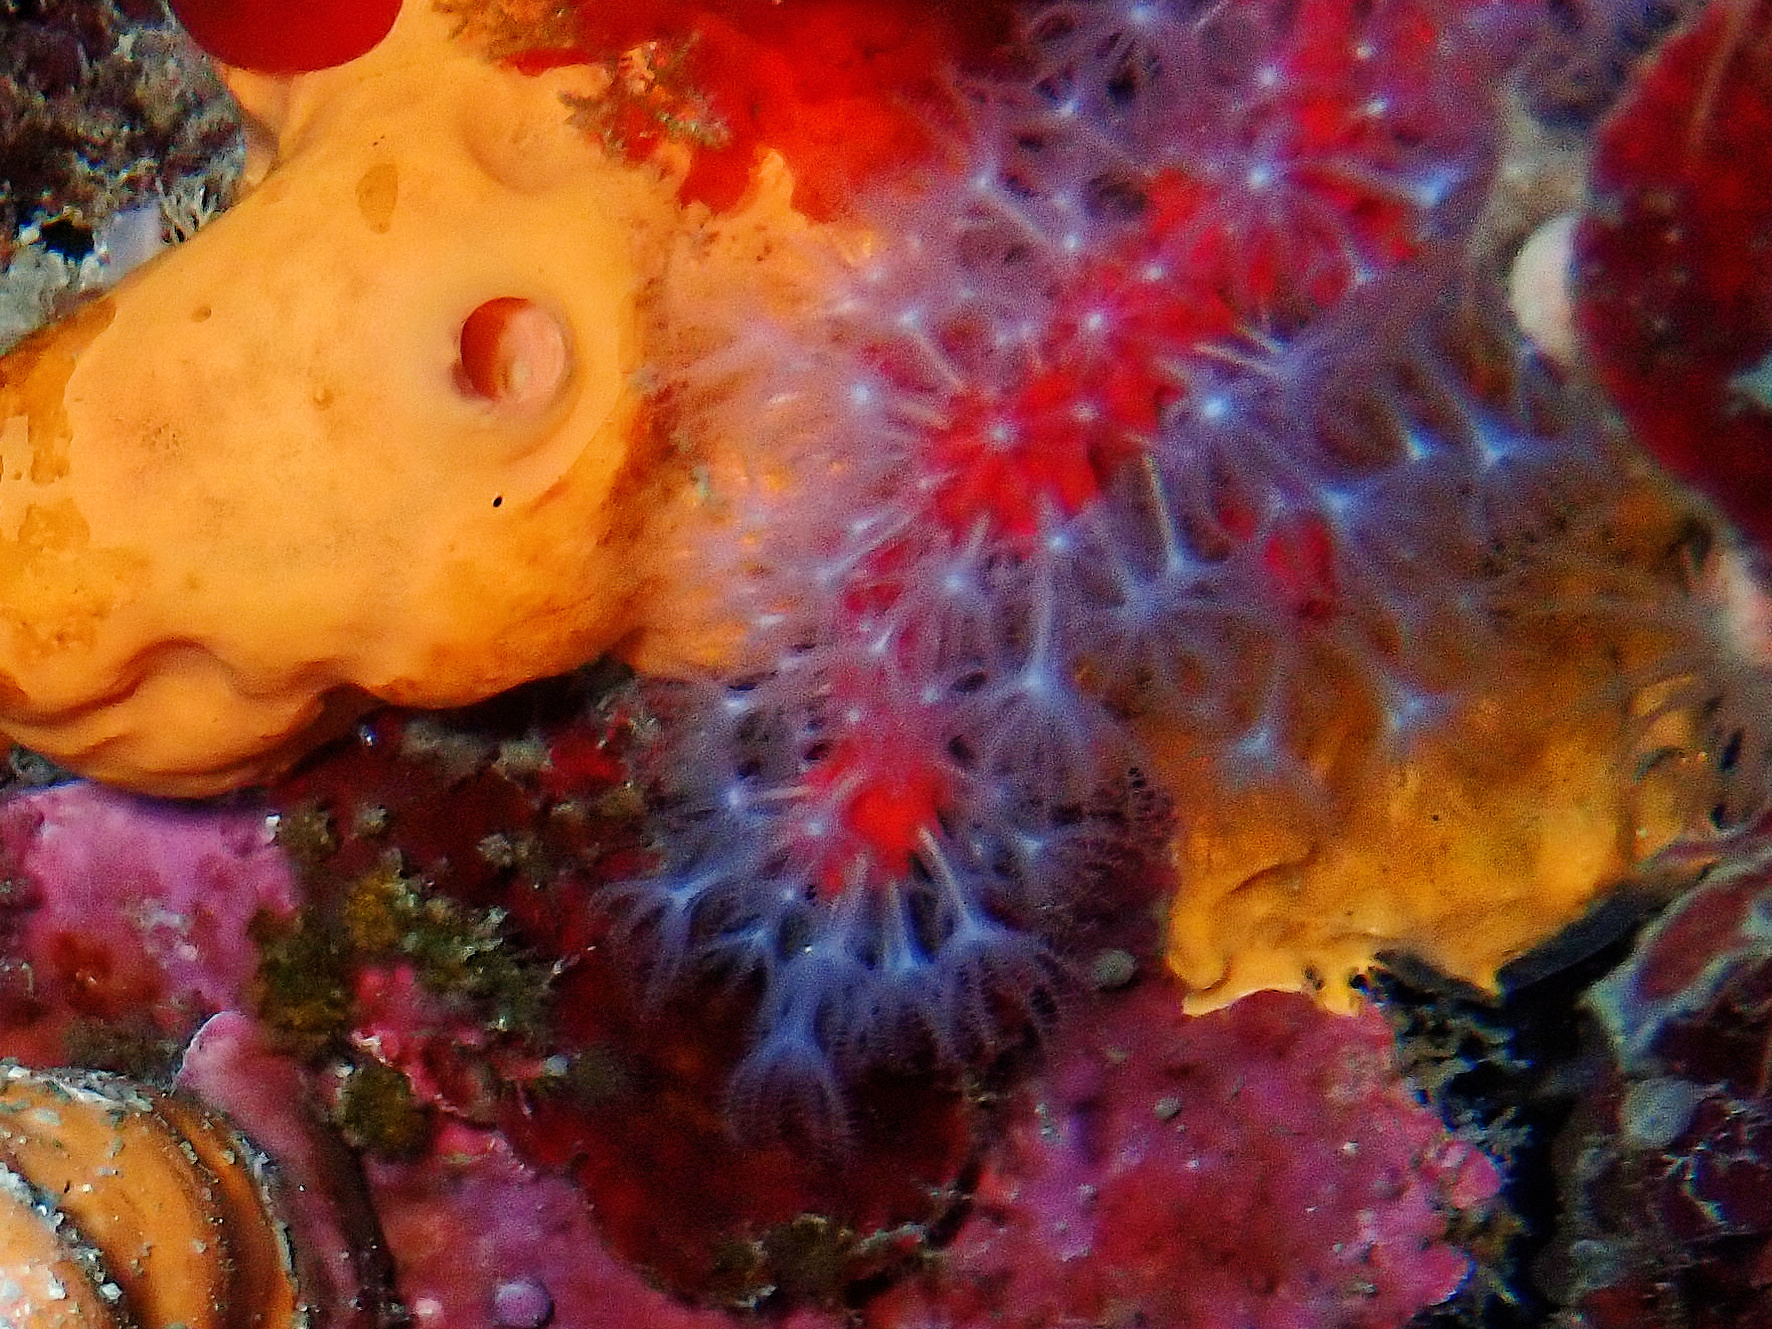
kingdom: Animalia
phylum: Cnidaria
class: Anthozoa
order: Scleralcyonacea
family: Coralliidae
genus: Corallium
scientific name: Corallium rubrum
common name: Precious coral
